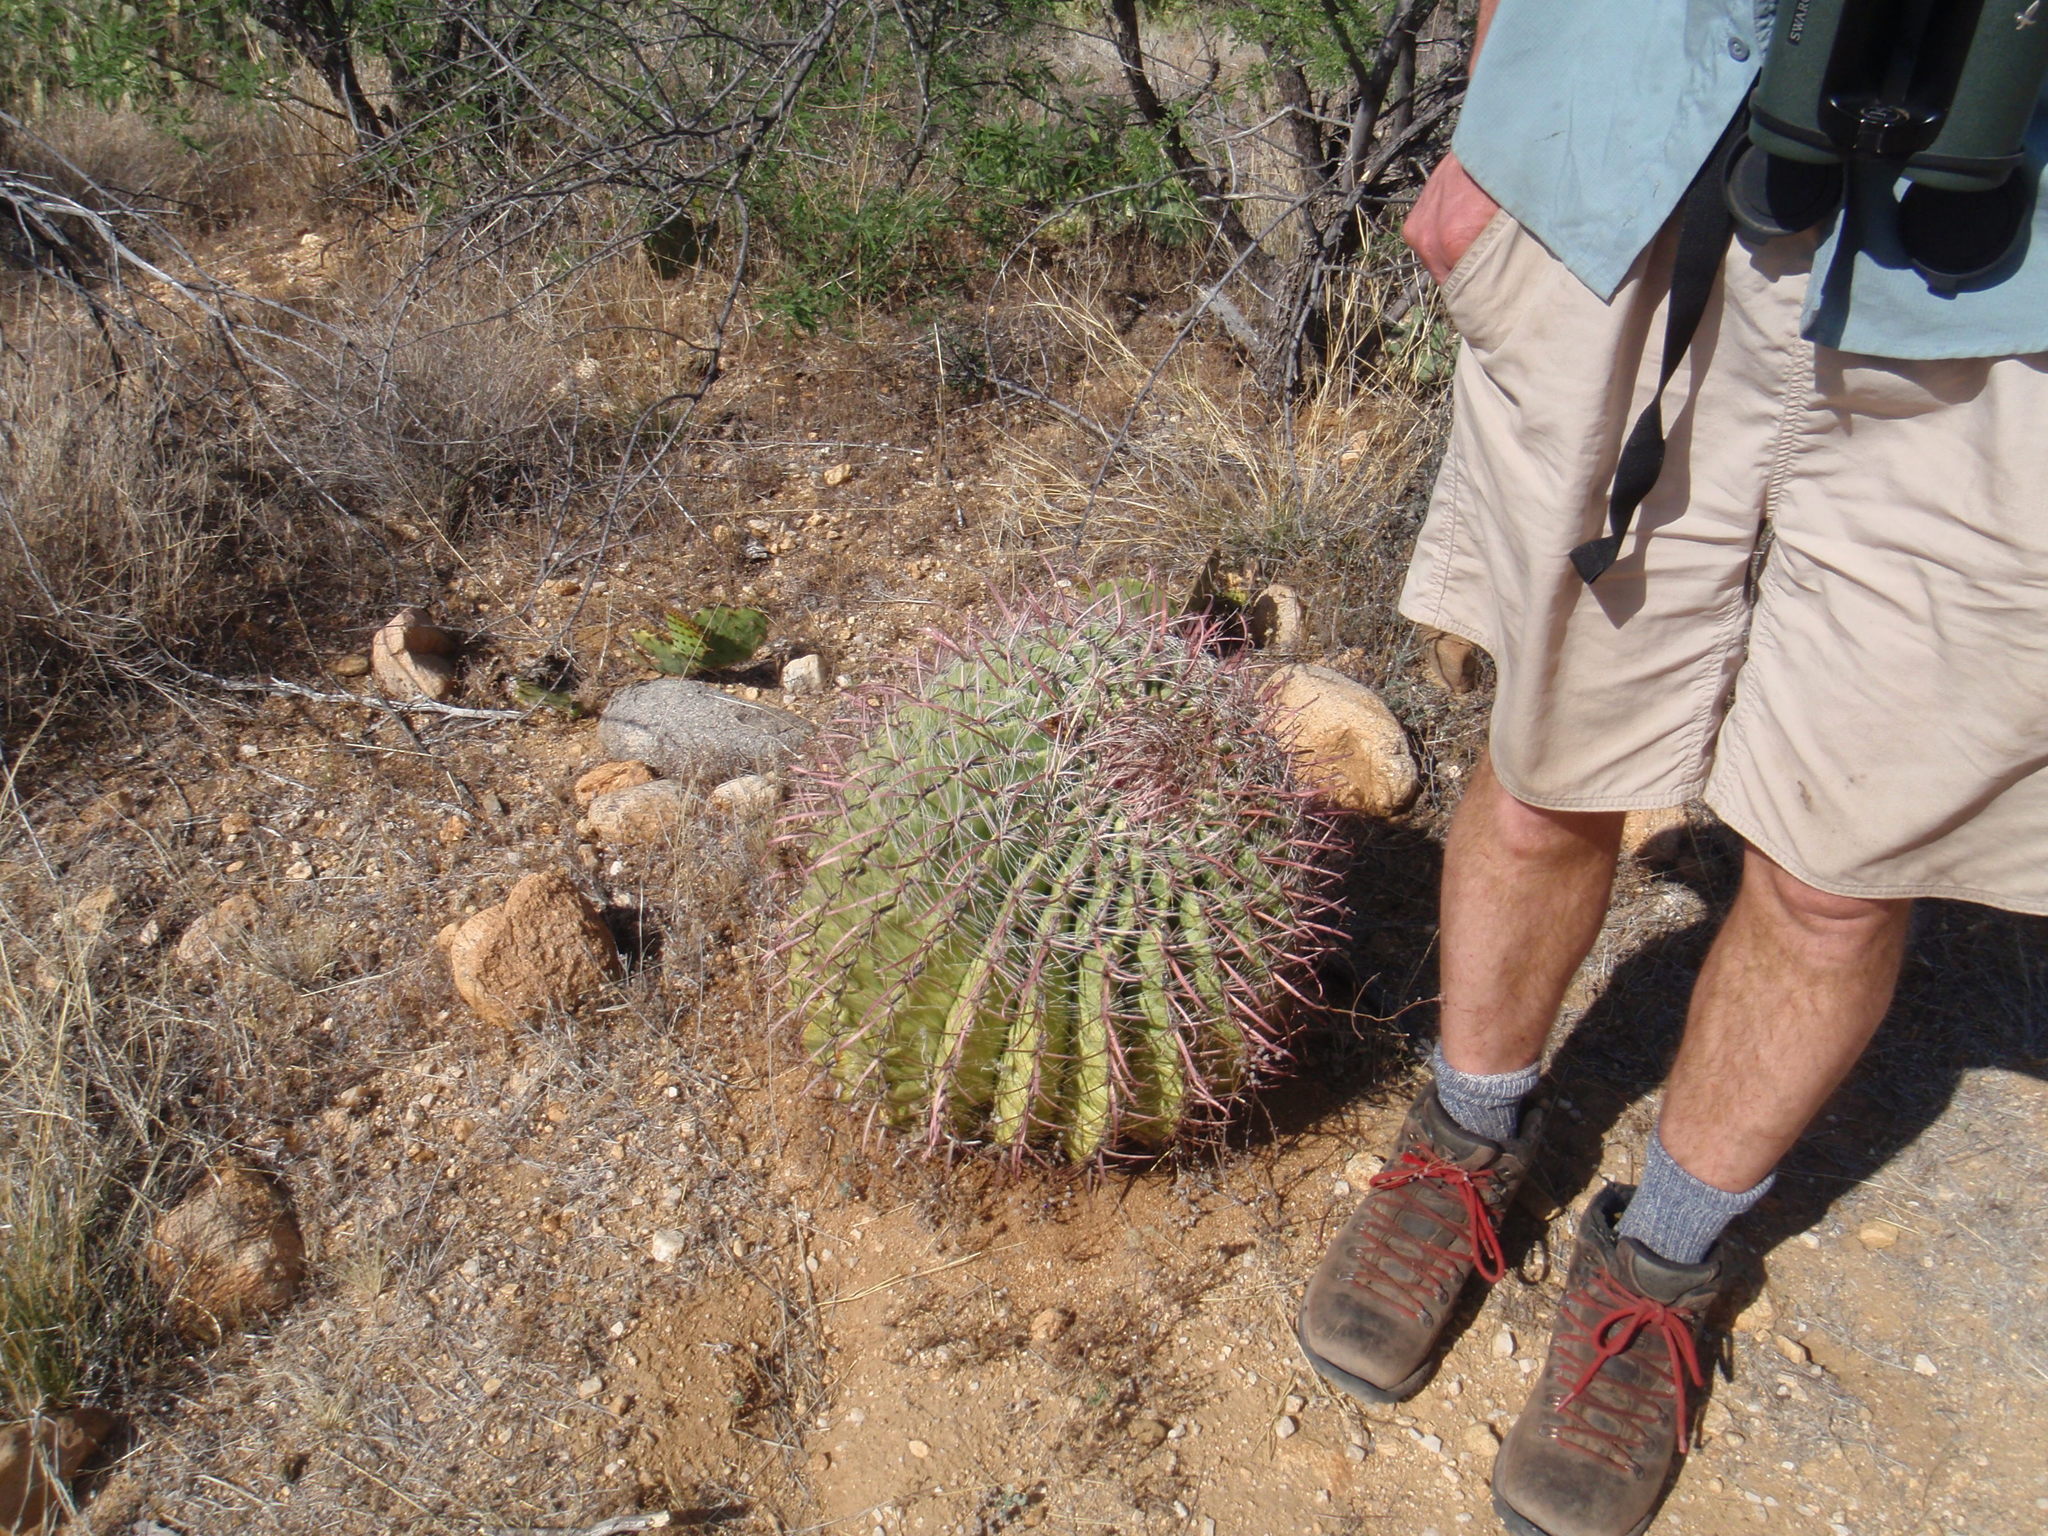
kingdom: Plantae
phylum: Tracheophyta
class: Magnoliopsida
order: Caryophyllales
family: Cactaceae
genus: Ferocactus
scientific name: Ferocactus wislizeni
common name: Candy barrel cactus
